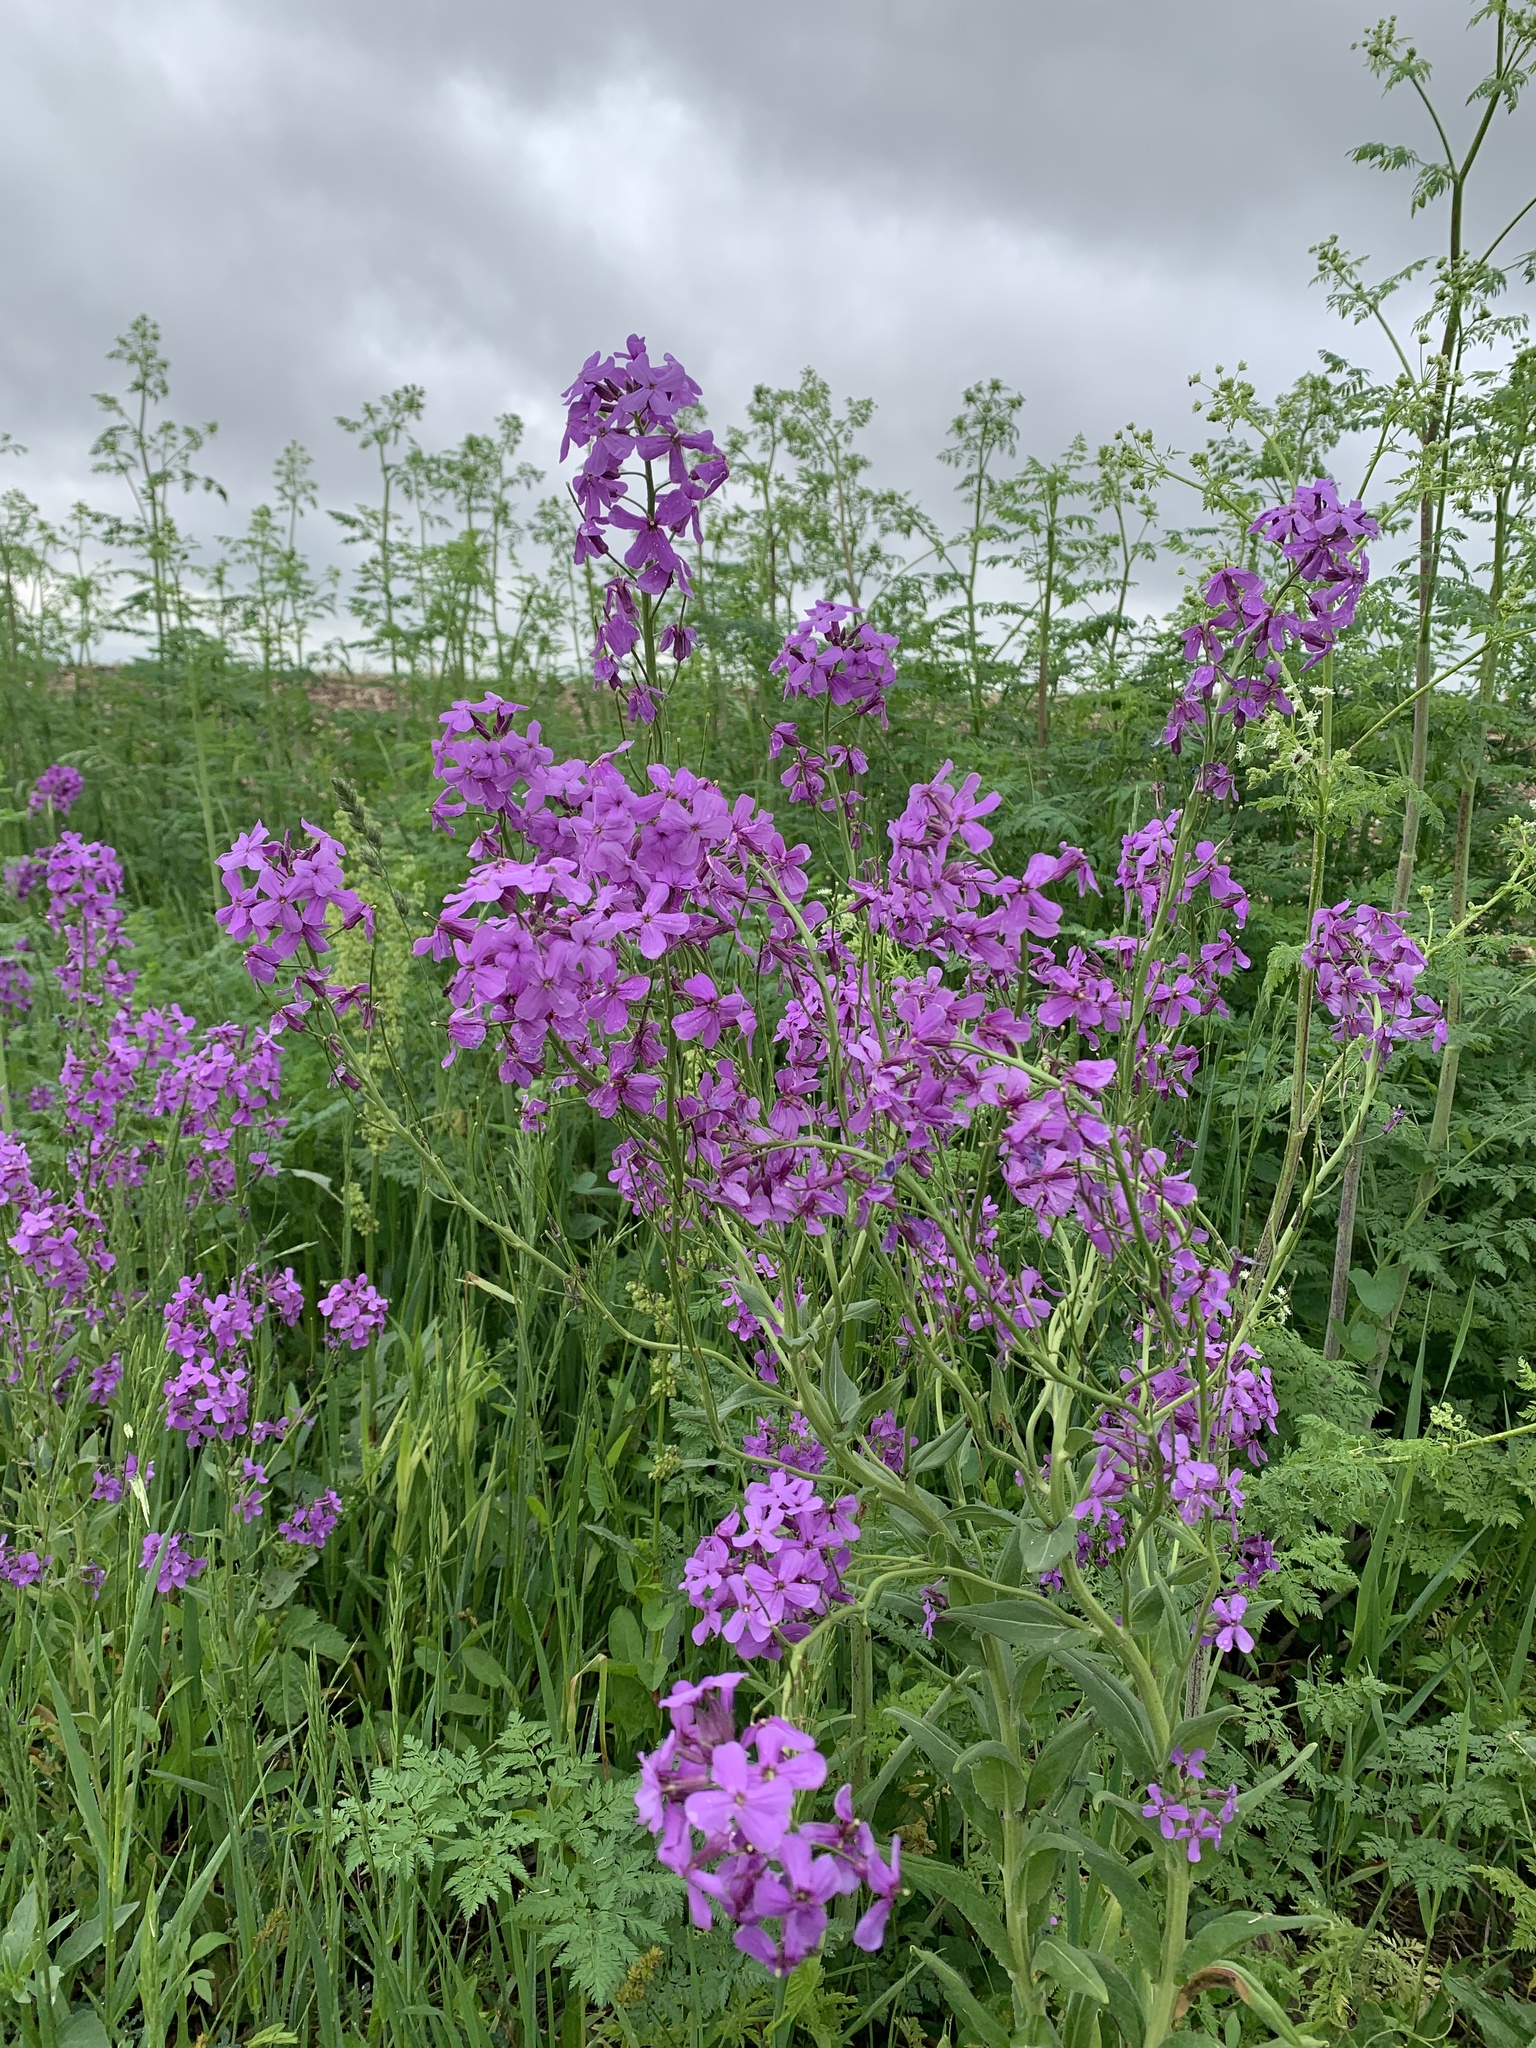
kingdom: Plantae
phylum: Tracheophyta
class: Magnoliopsida
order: Brassicales
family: Brassicaceae
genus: Hesperis
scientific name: Hesperis matronalis
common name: Dame's-violet
